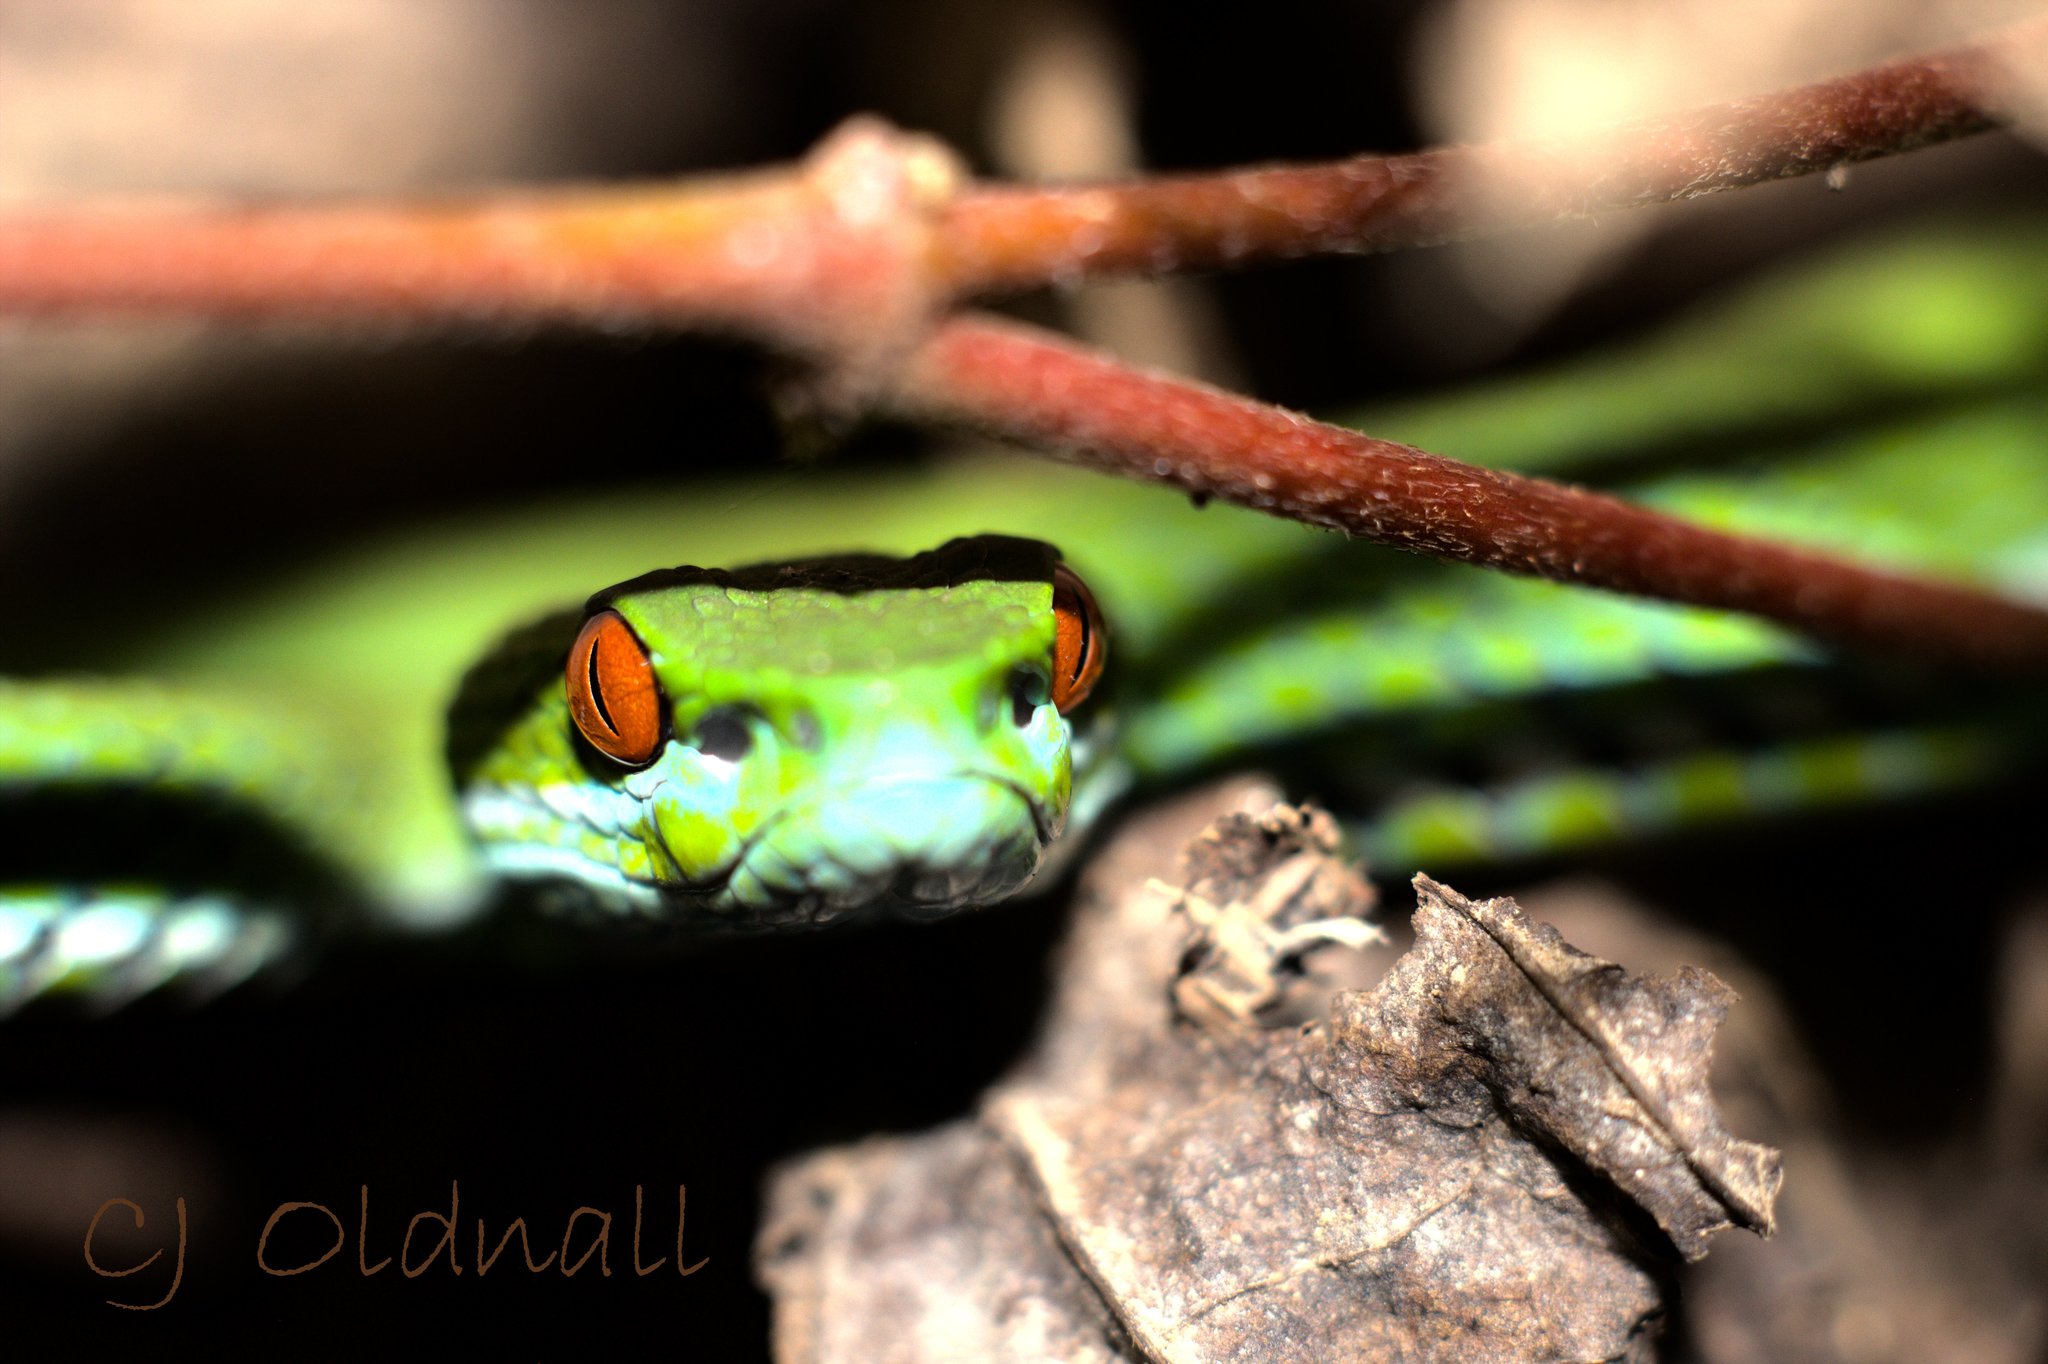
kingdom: Animalia
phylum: Chordata
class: Squamata
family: Viperidae
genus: Craspedocephalus
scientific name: Craspedocephalus rubeus
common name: Ruby-eyed green pitviper
